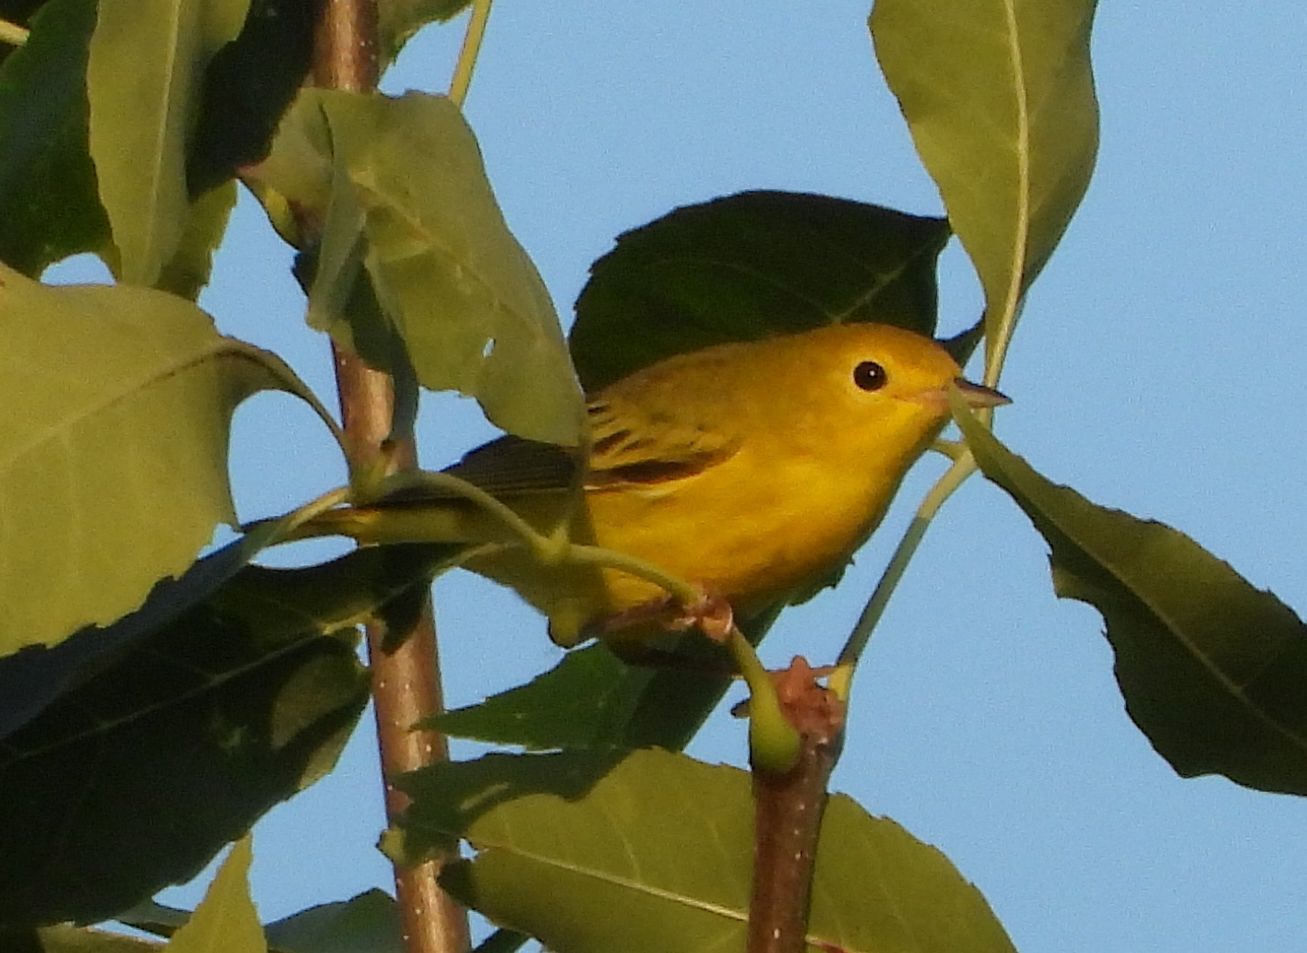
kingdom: Animalia
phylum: Chordata
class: Aves
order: Passeriformes
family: Parulidae
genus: Setophaga
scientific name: Setophaga petechia
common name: Yellow warbler
